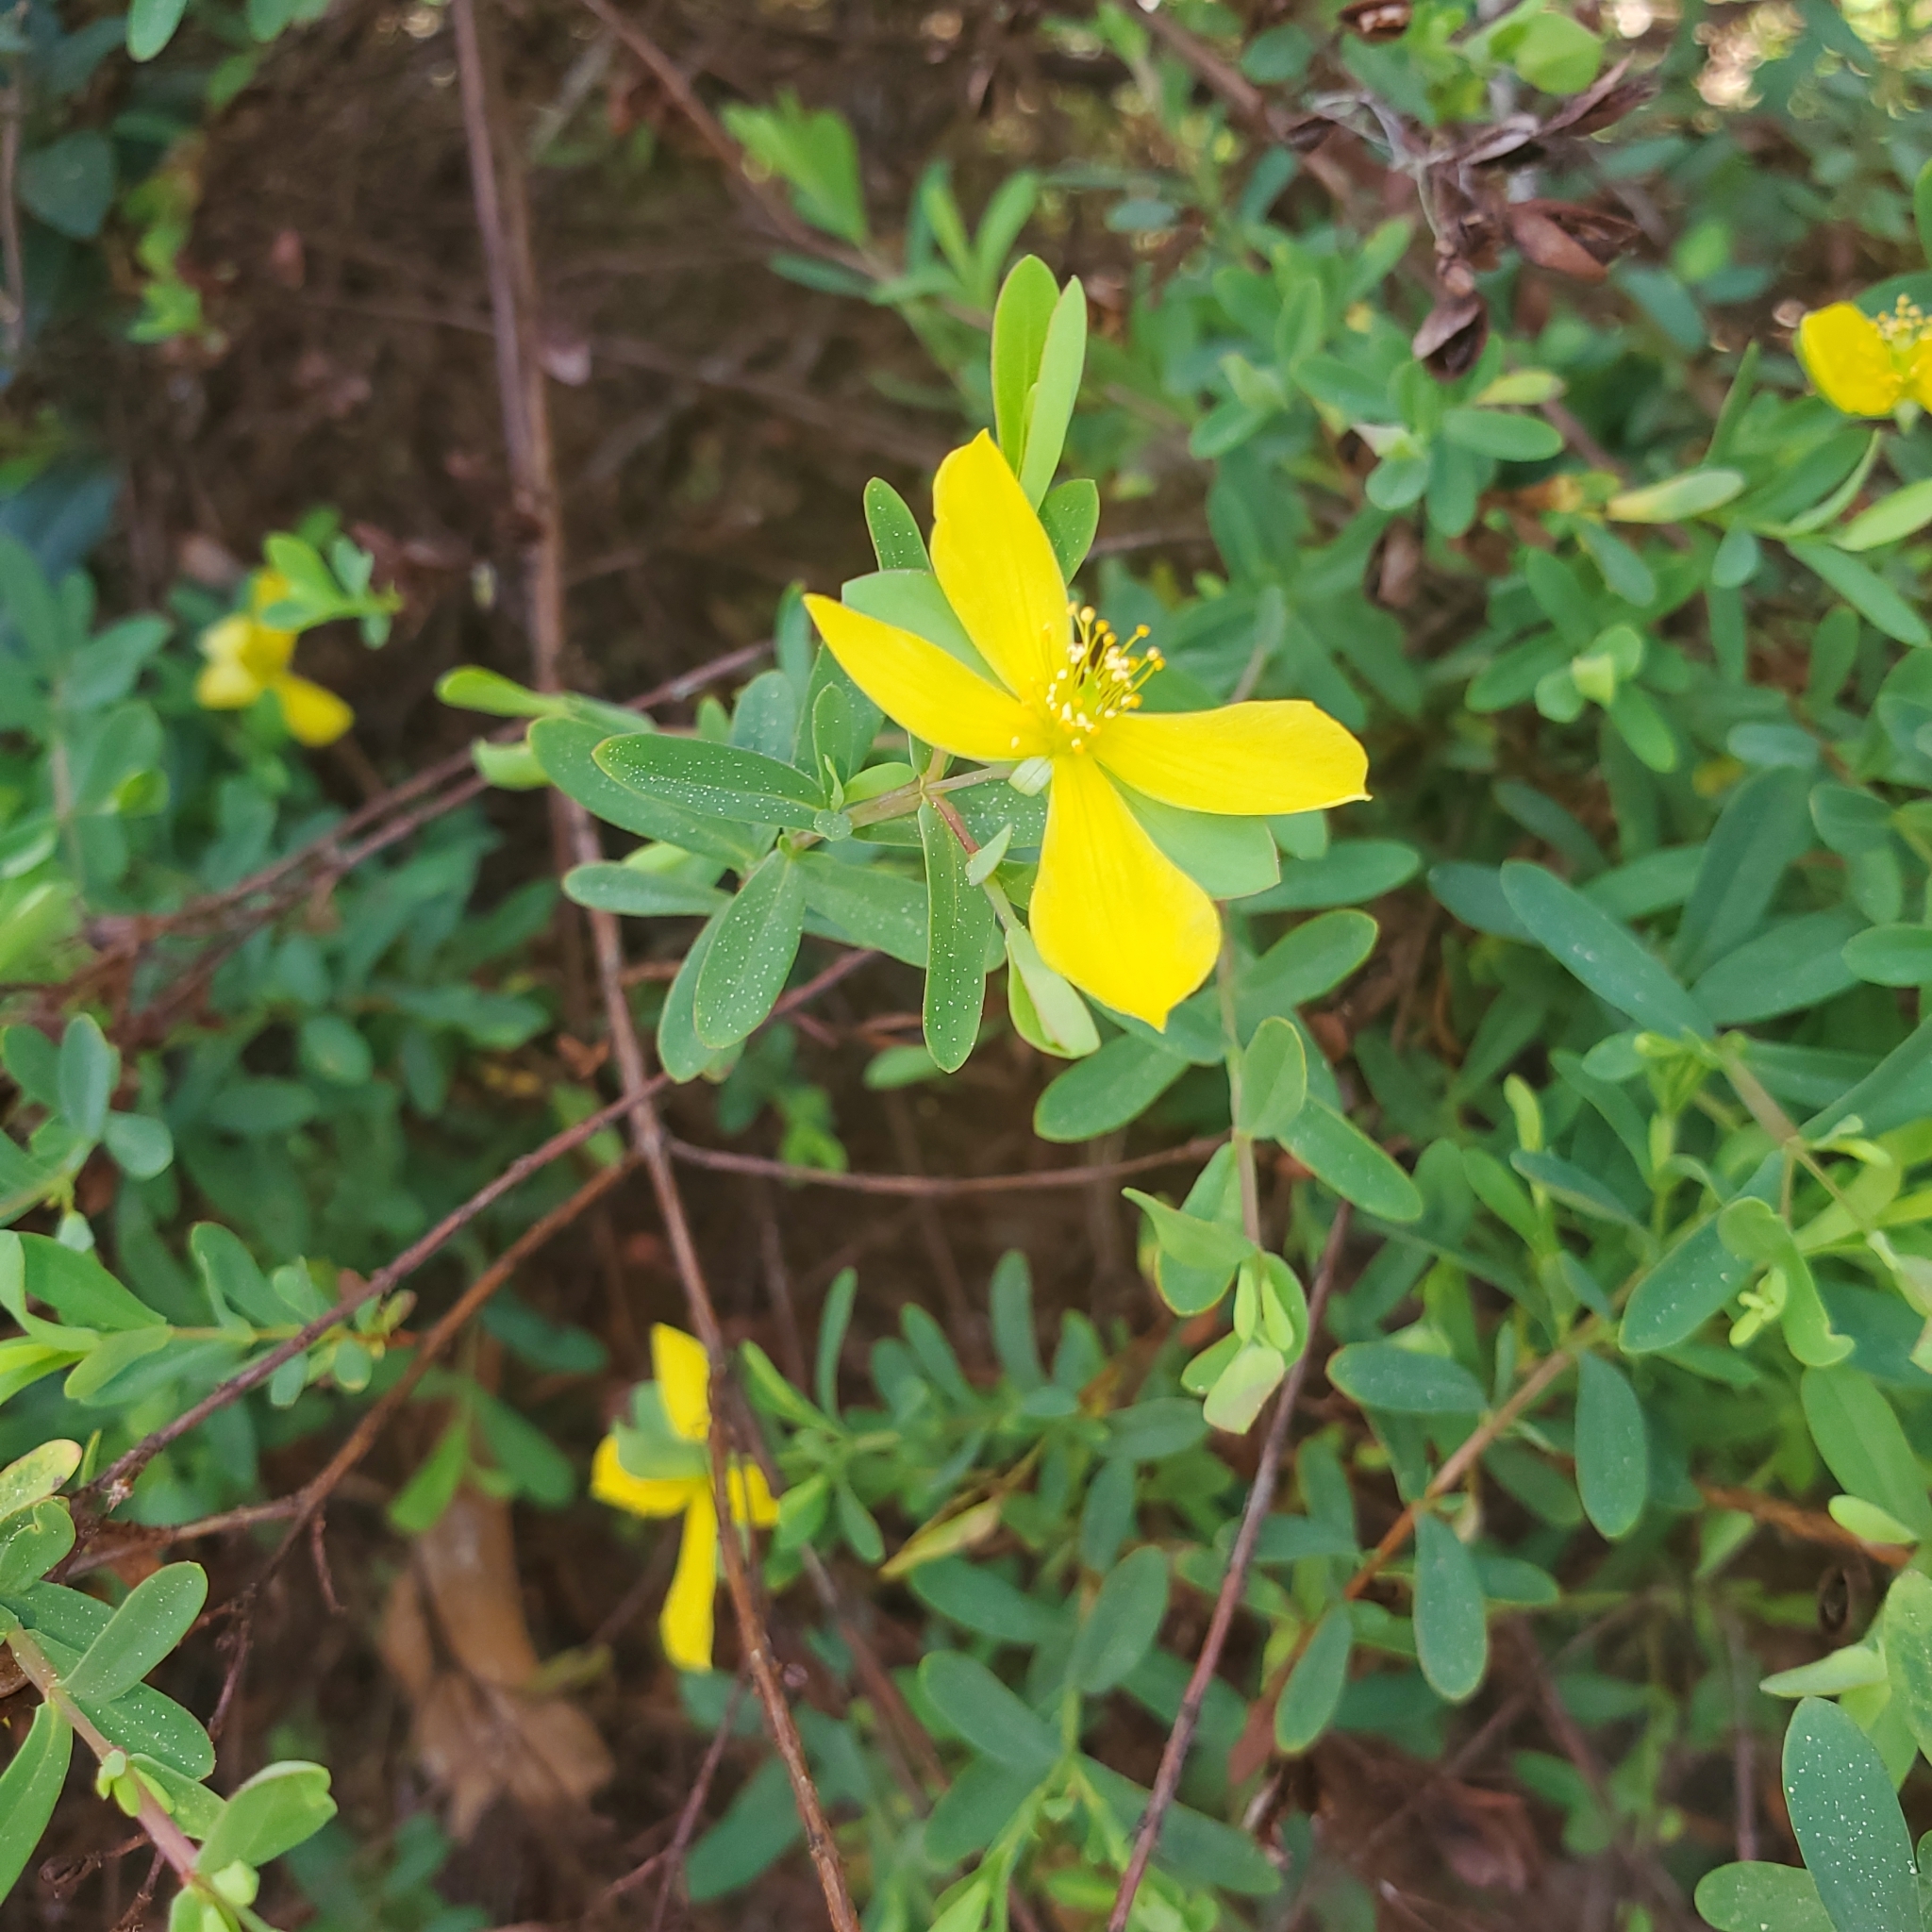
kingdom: Plantae
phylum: Tracheophyta
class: Magnoliopsida
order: Malpighiales
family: Hypericaceae
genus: Hypericum
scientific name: Hypericum hypericoides
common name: St. andrew's cross
